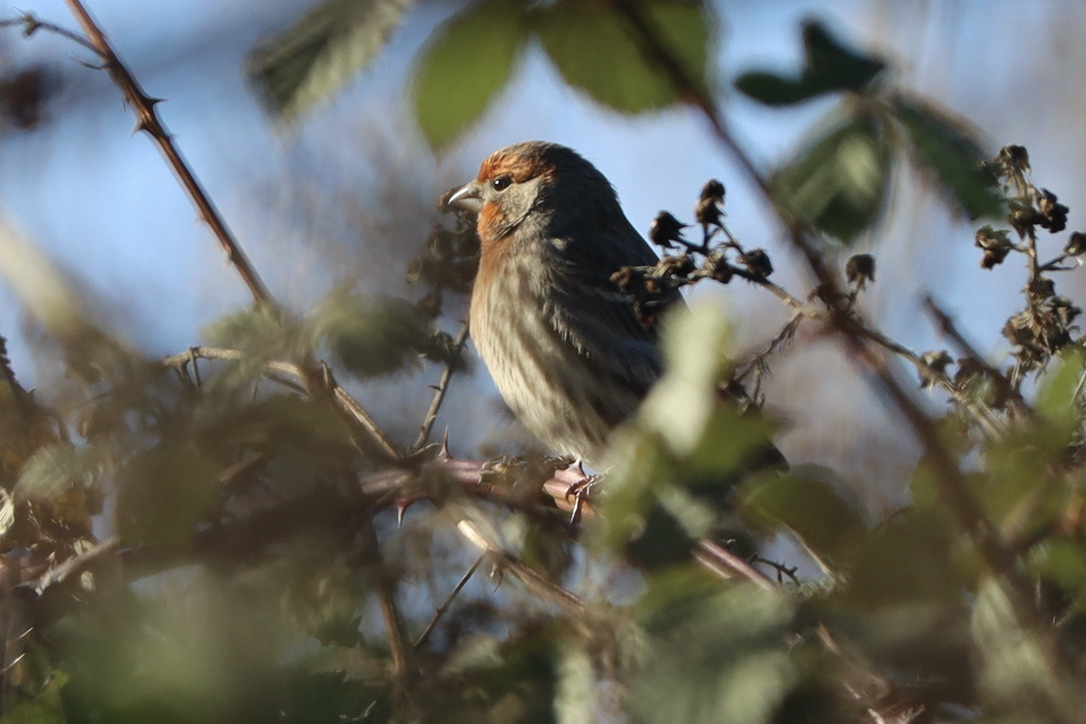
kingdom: Animalia
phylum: Chordata
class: Aves
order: Passeriformes
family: Fringillidae
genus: Haemorhous
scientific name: Haemorhous mexicanus
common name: House finch
